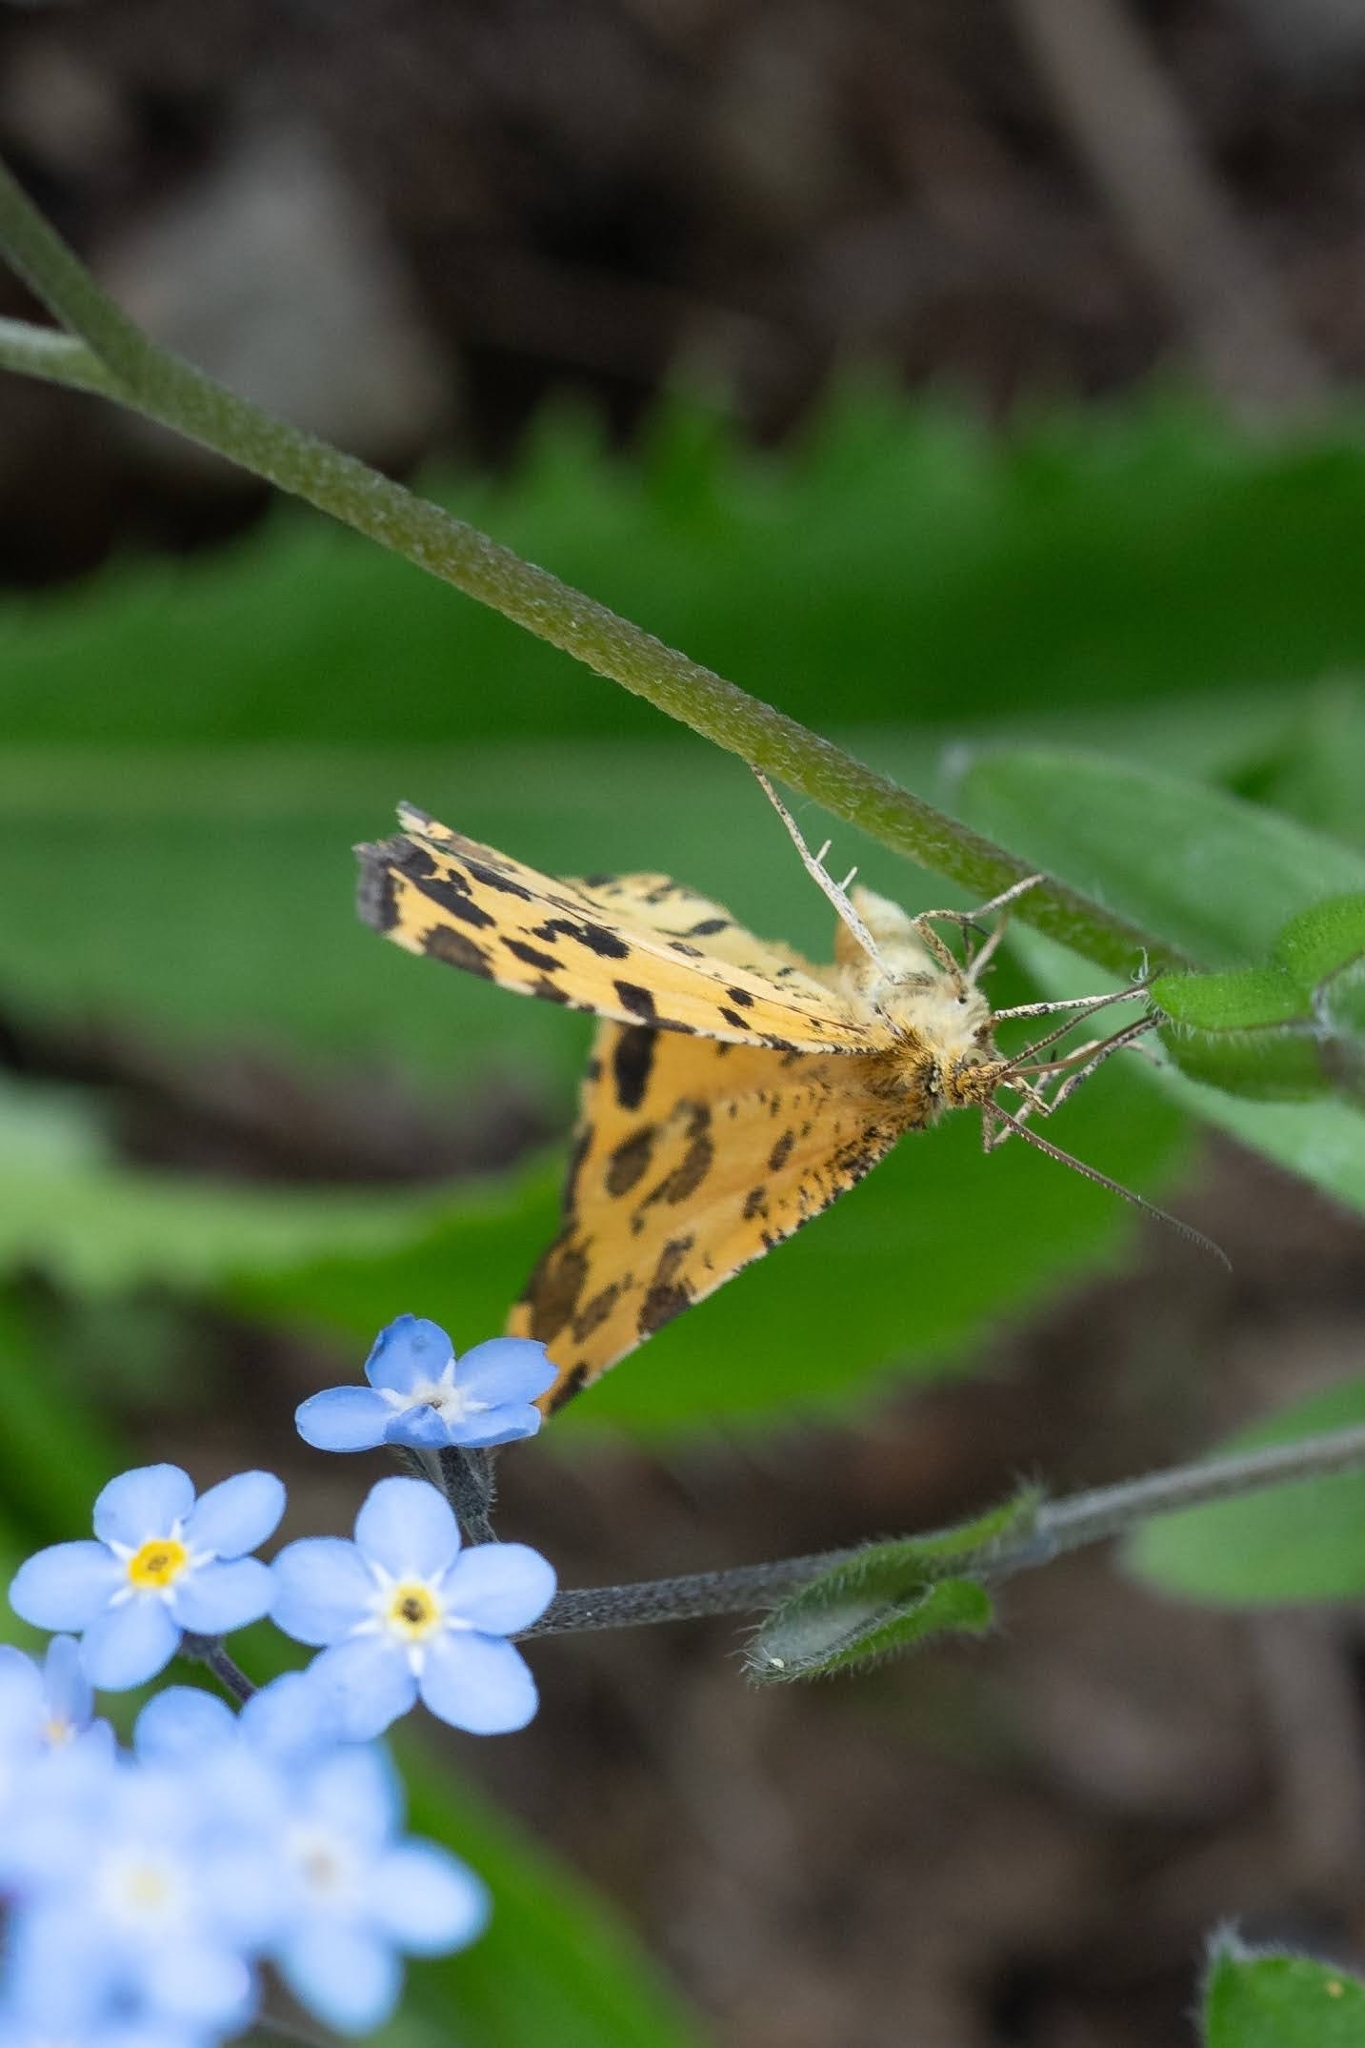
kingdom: Animalia
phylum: Arthropoda
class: Insecta
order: Lepidoptera
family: Geometridae
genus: Pseudopanthera
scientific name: Pseudopanthera macularia
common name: Speckled yellow
